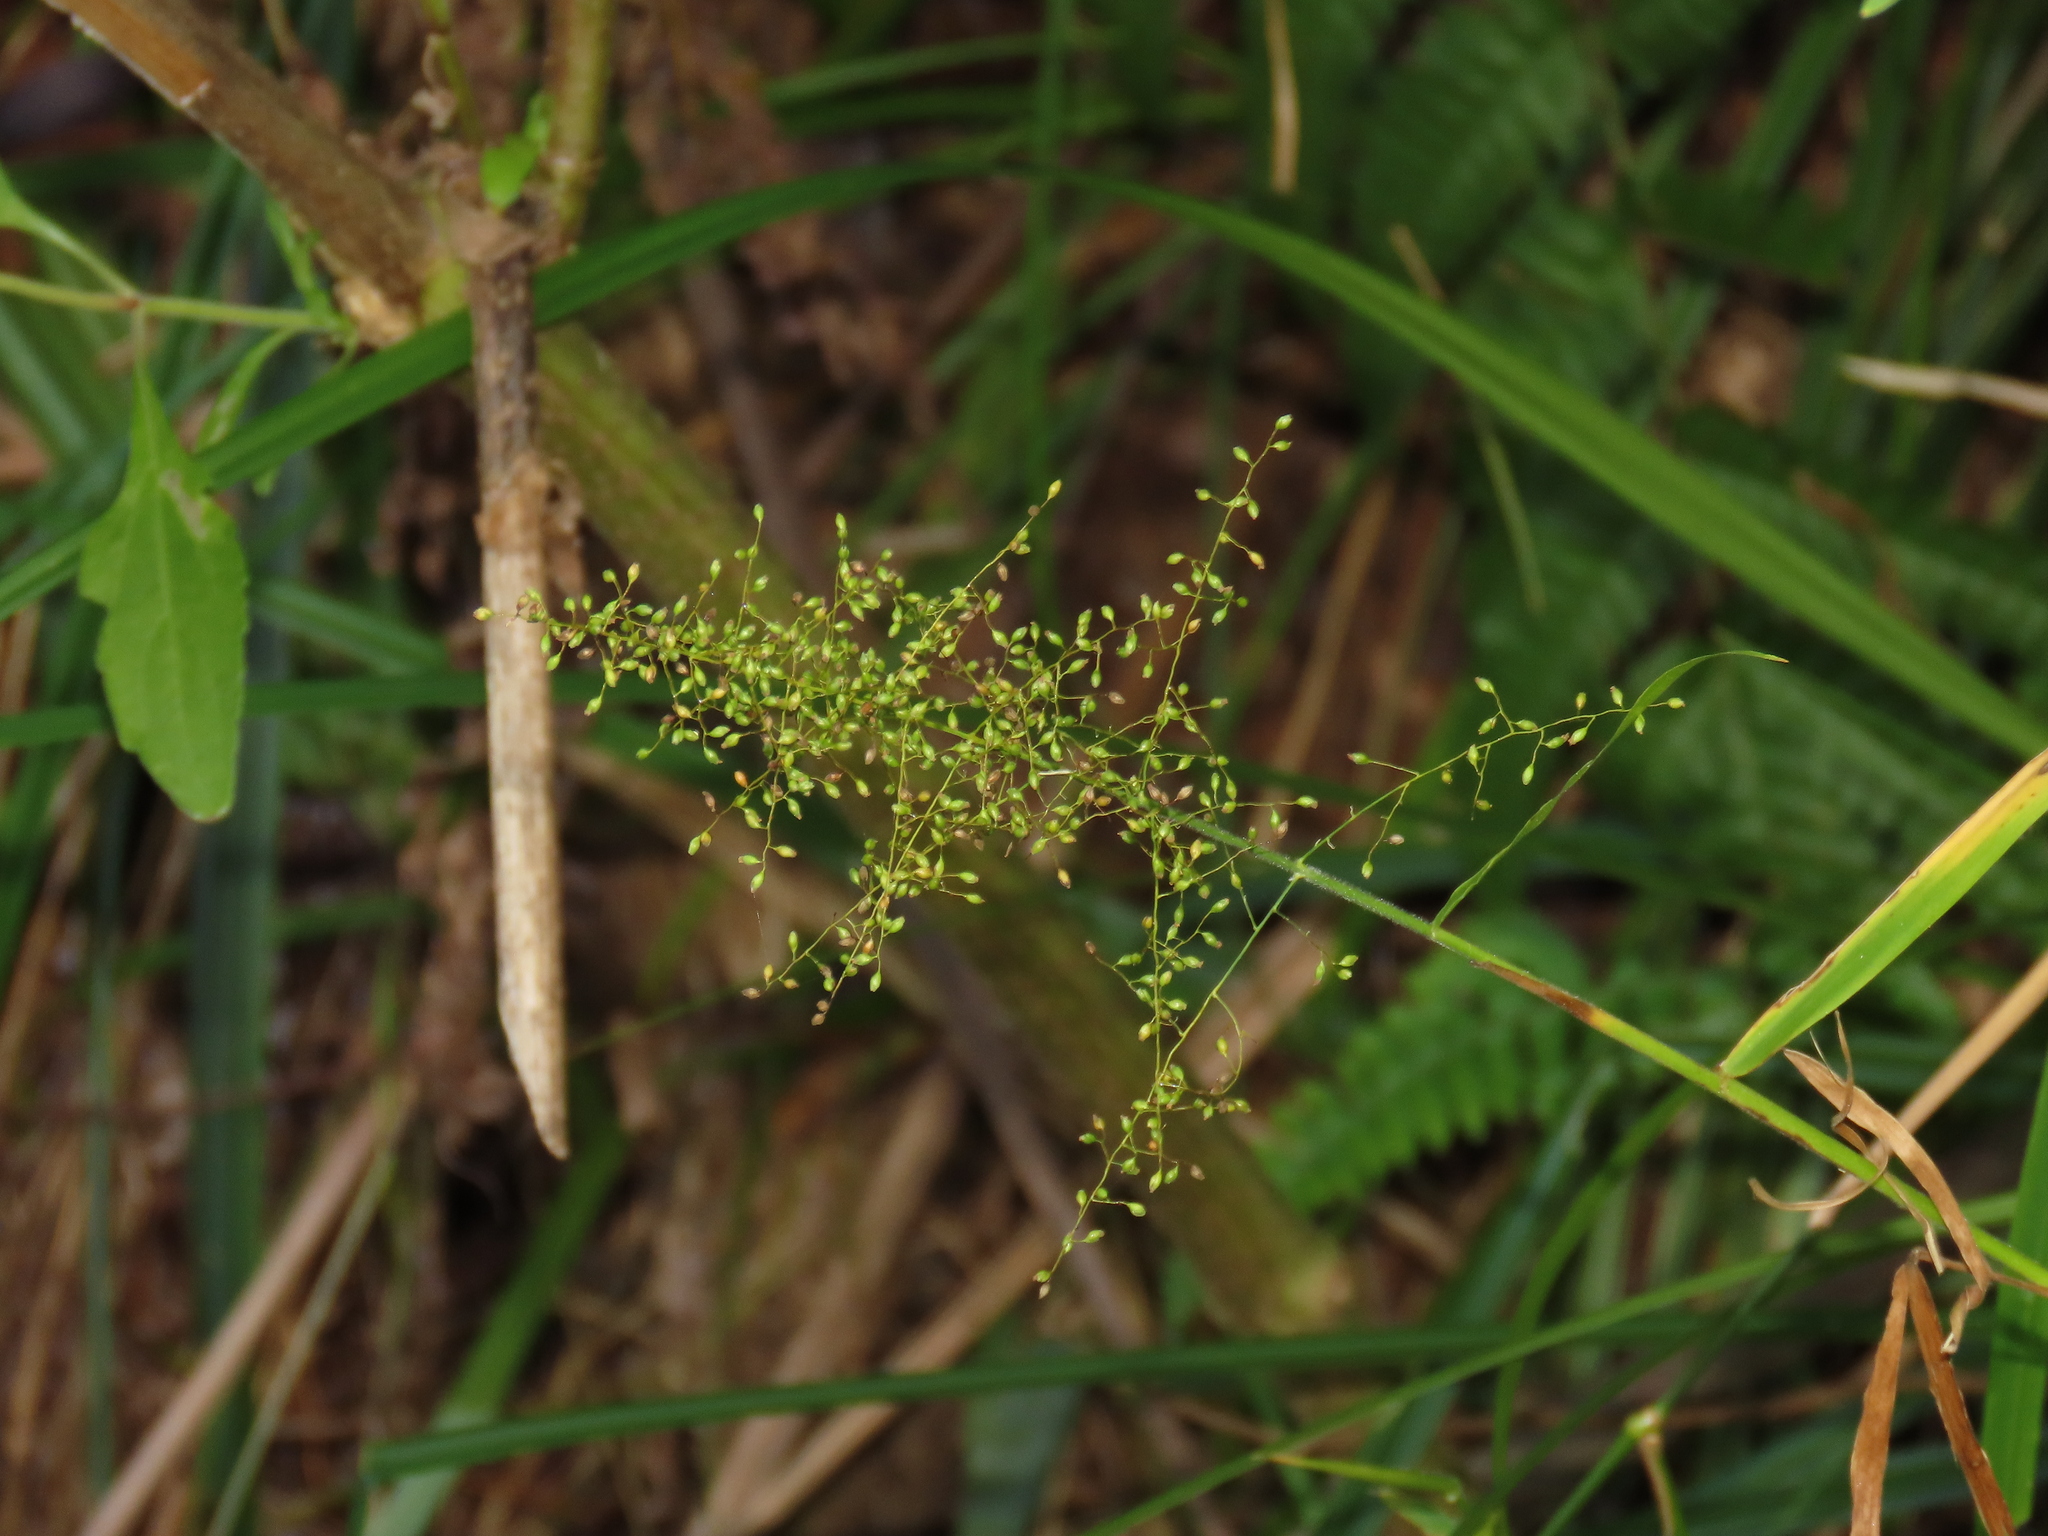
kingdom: Plantae
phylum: Tracheophyta
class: Liliopsida
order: Poales
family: Poaceae
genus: Panicum
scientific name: Panicum sarmentosum
